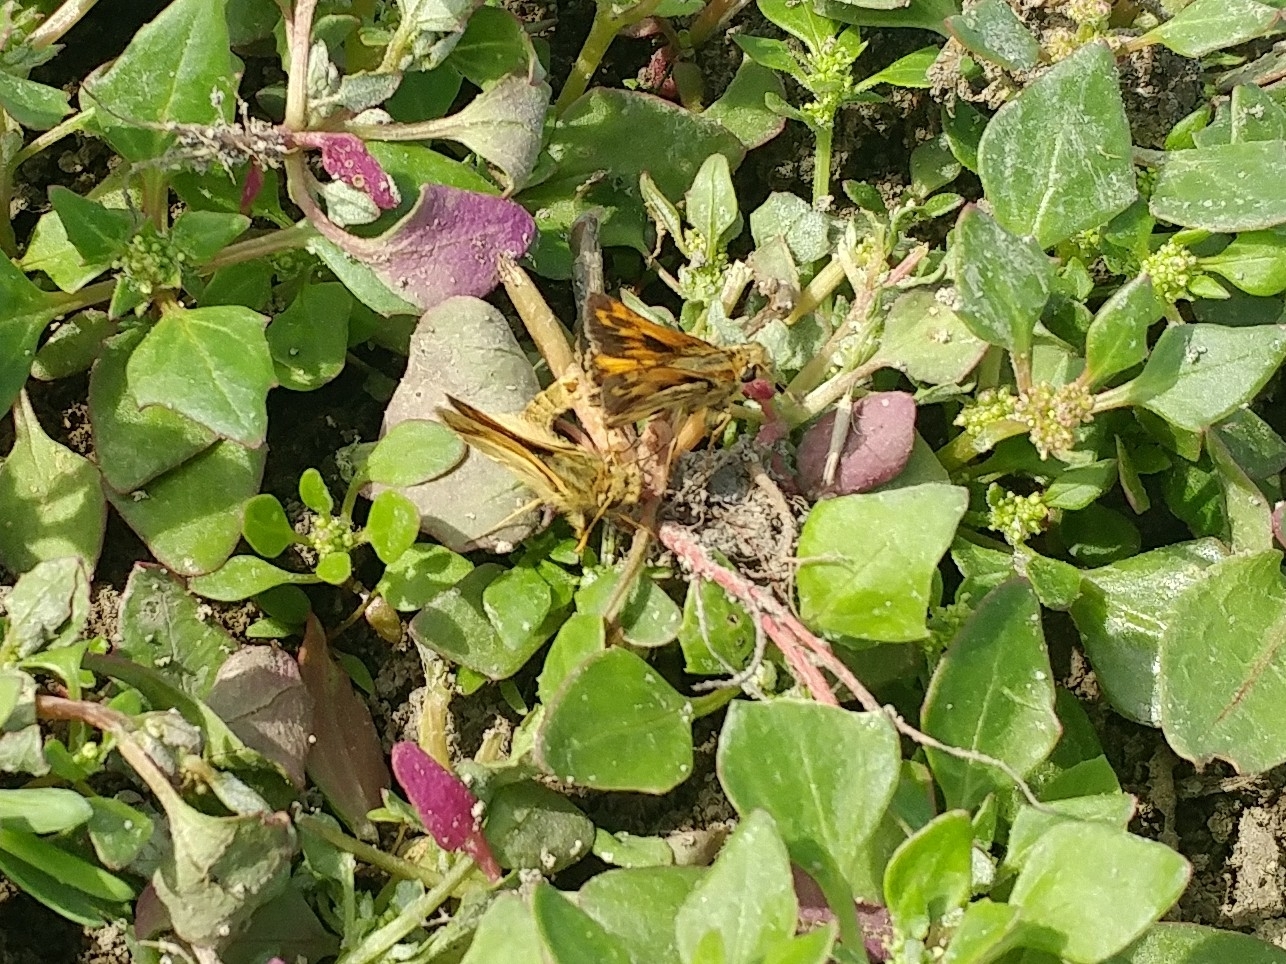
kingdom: Animalia
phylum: Arthropoda
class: Insecta
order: Lepidoptera
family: Hesperiidae
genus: Polites
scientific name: Polites sabuleti
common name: Sandhill skipper
